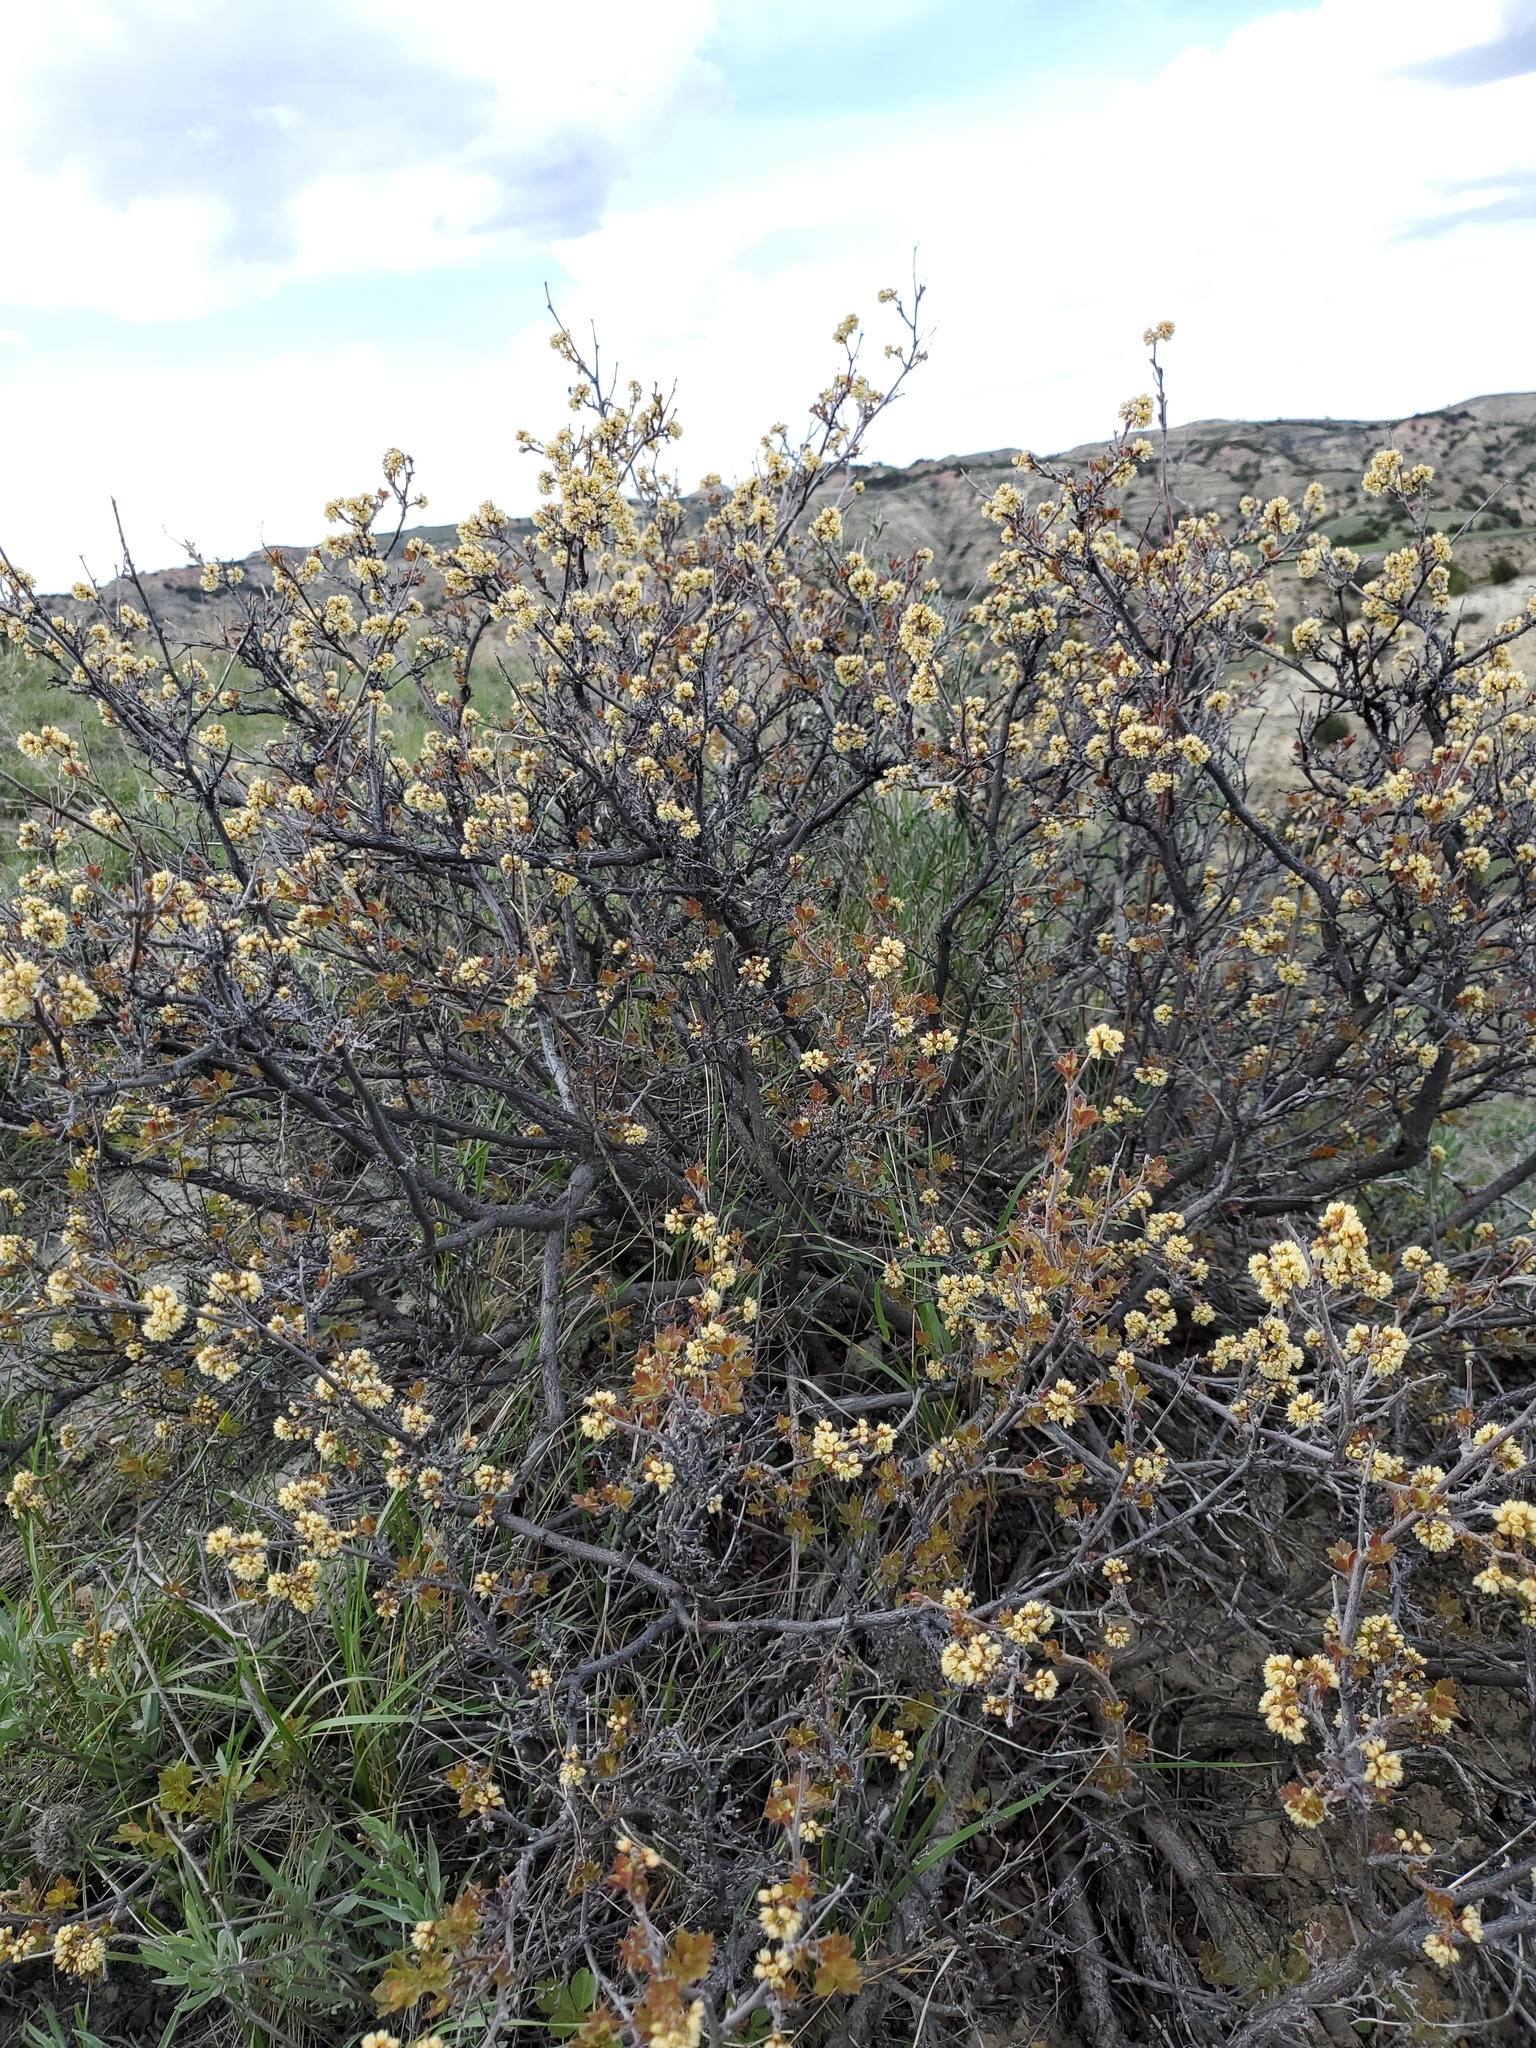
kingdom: Plantae
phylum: Tracheophyta
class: Magnoliopsida
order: Sapindales
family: Anacardiaceae
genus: Rhus
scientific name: Rhus aromatica
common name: Aromatic sumac
